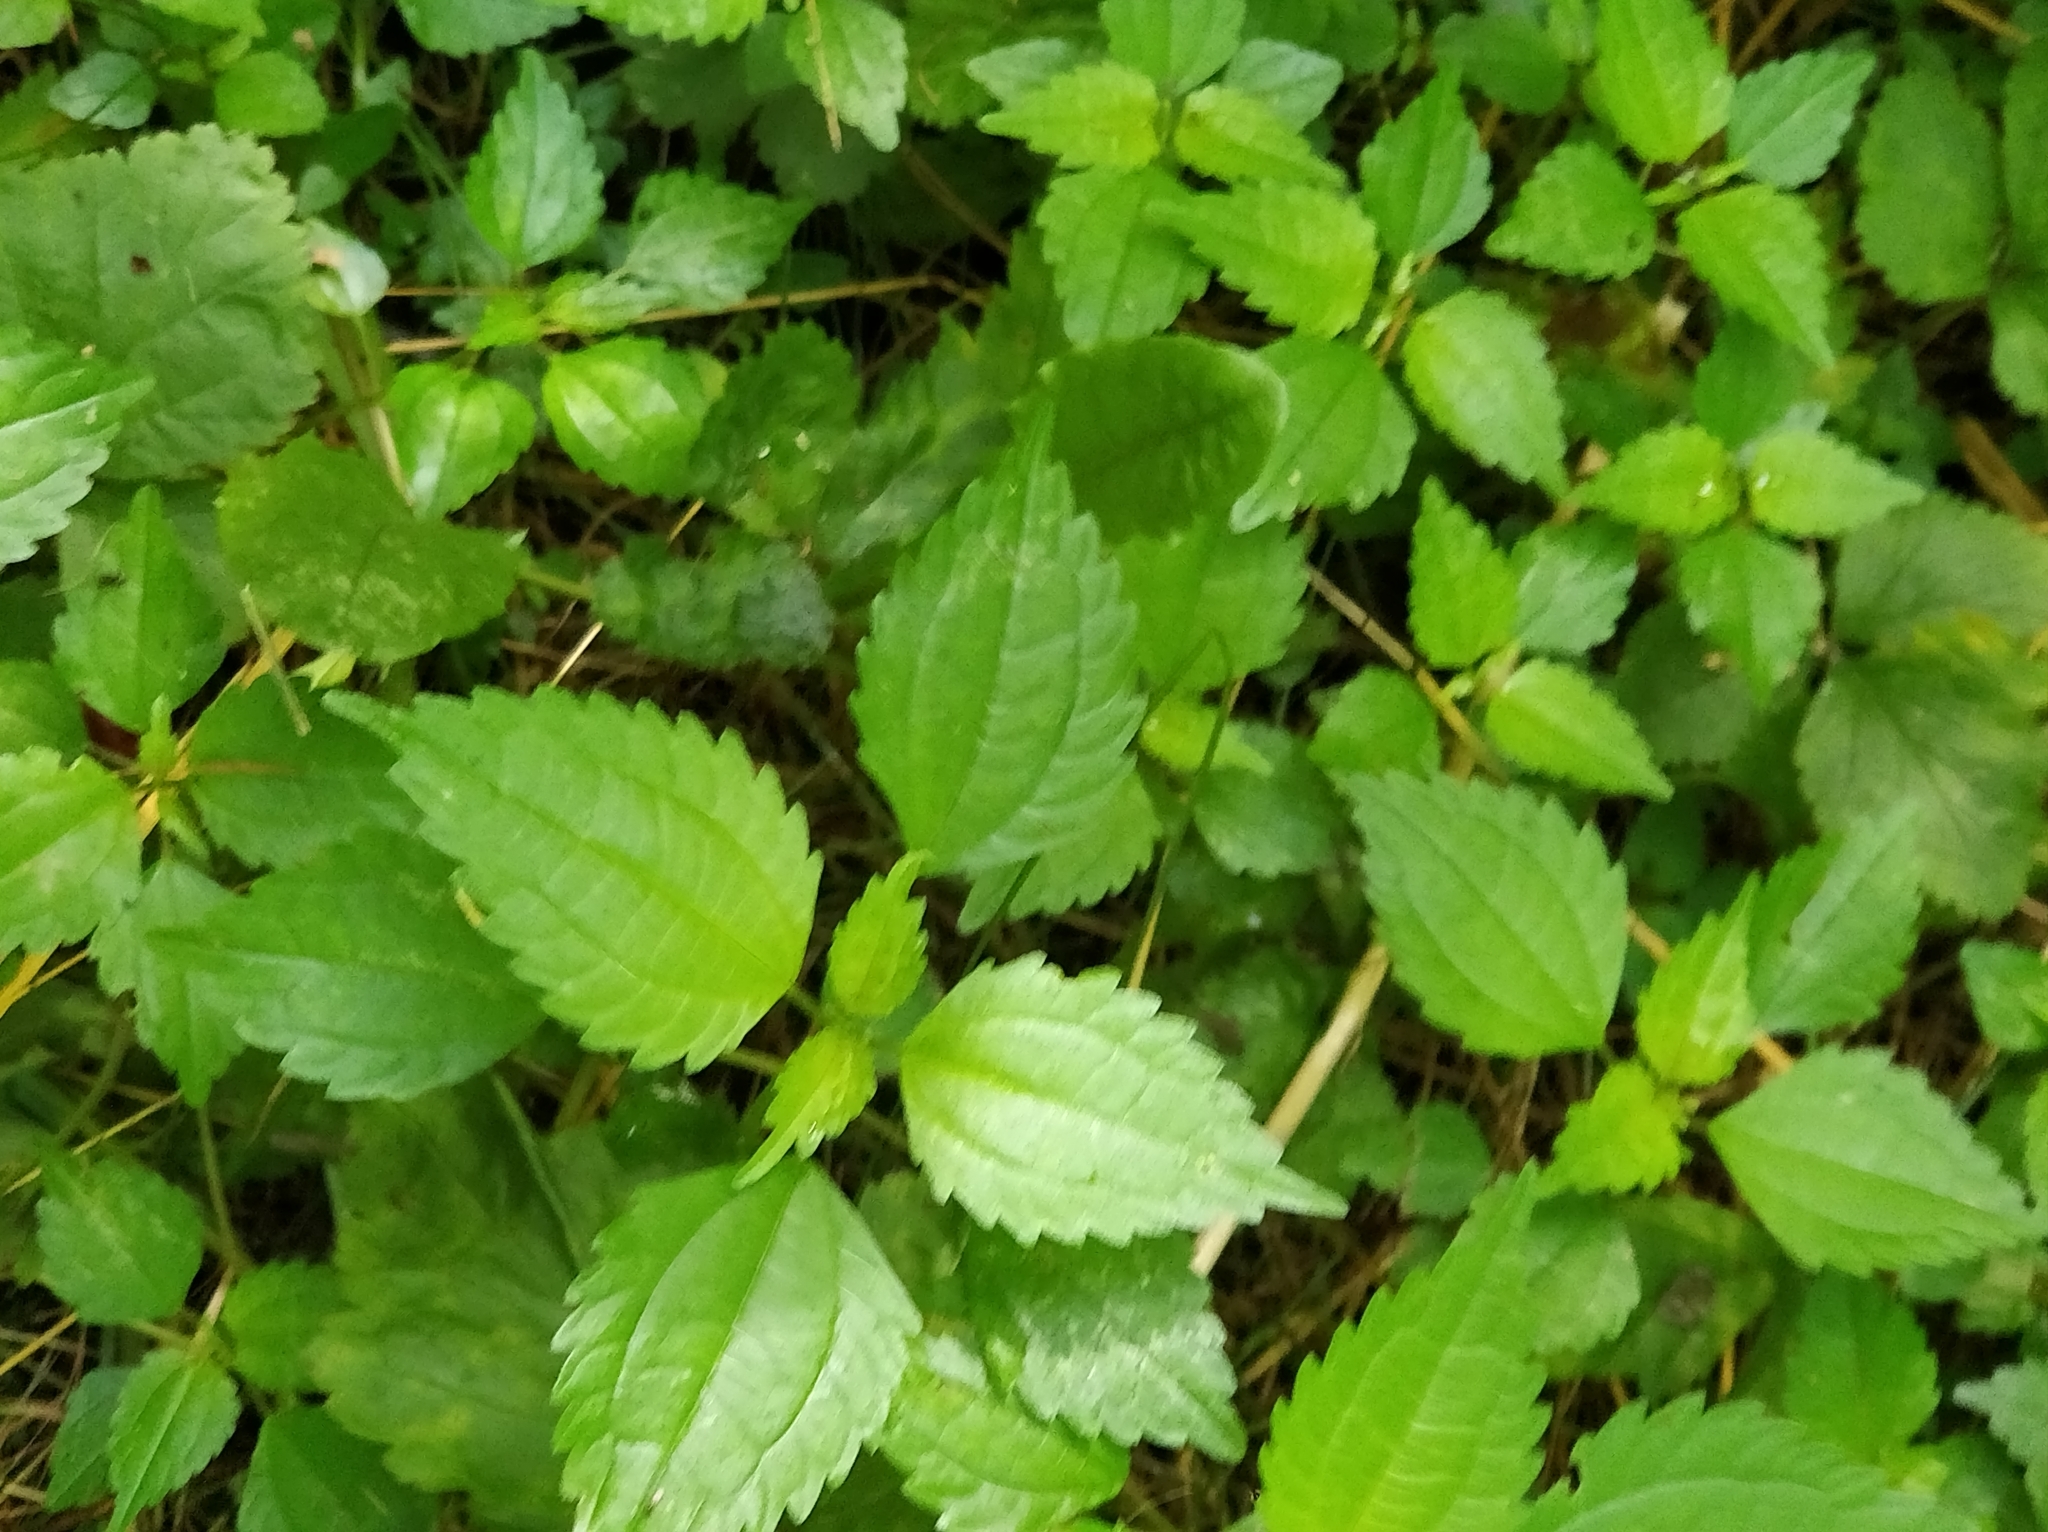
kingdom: Plantae
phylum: Tracheophyta
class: Magnoliopsida
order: Rosales
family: Urticaceae
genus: Pilea
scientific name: Pilea pumila
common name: Clearweed
